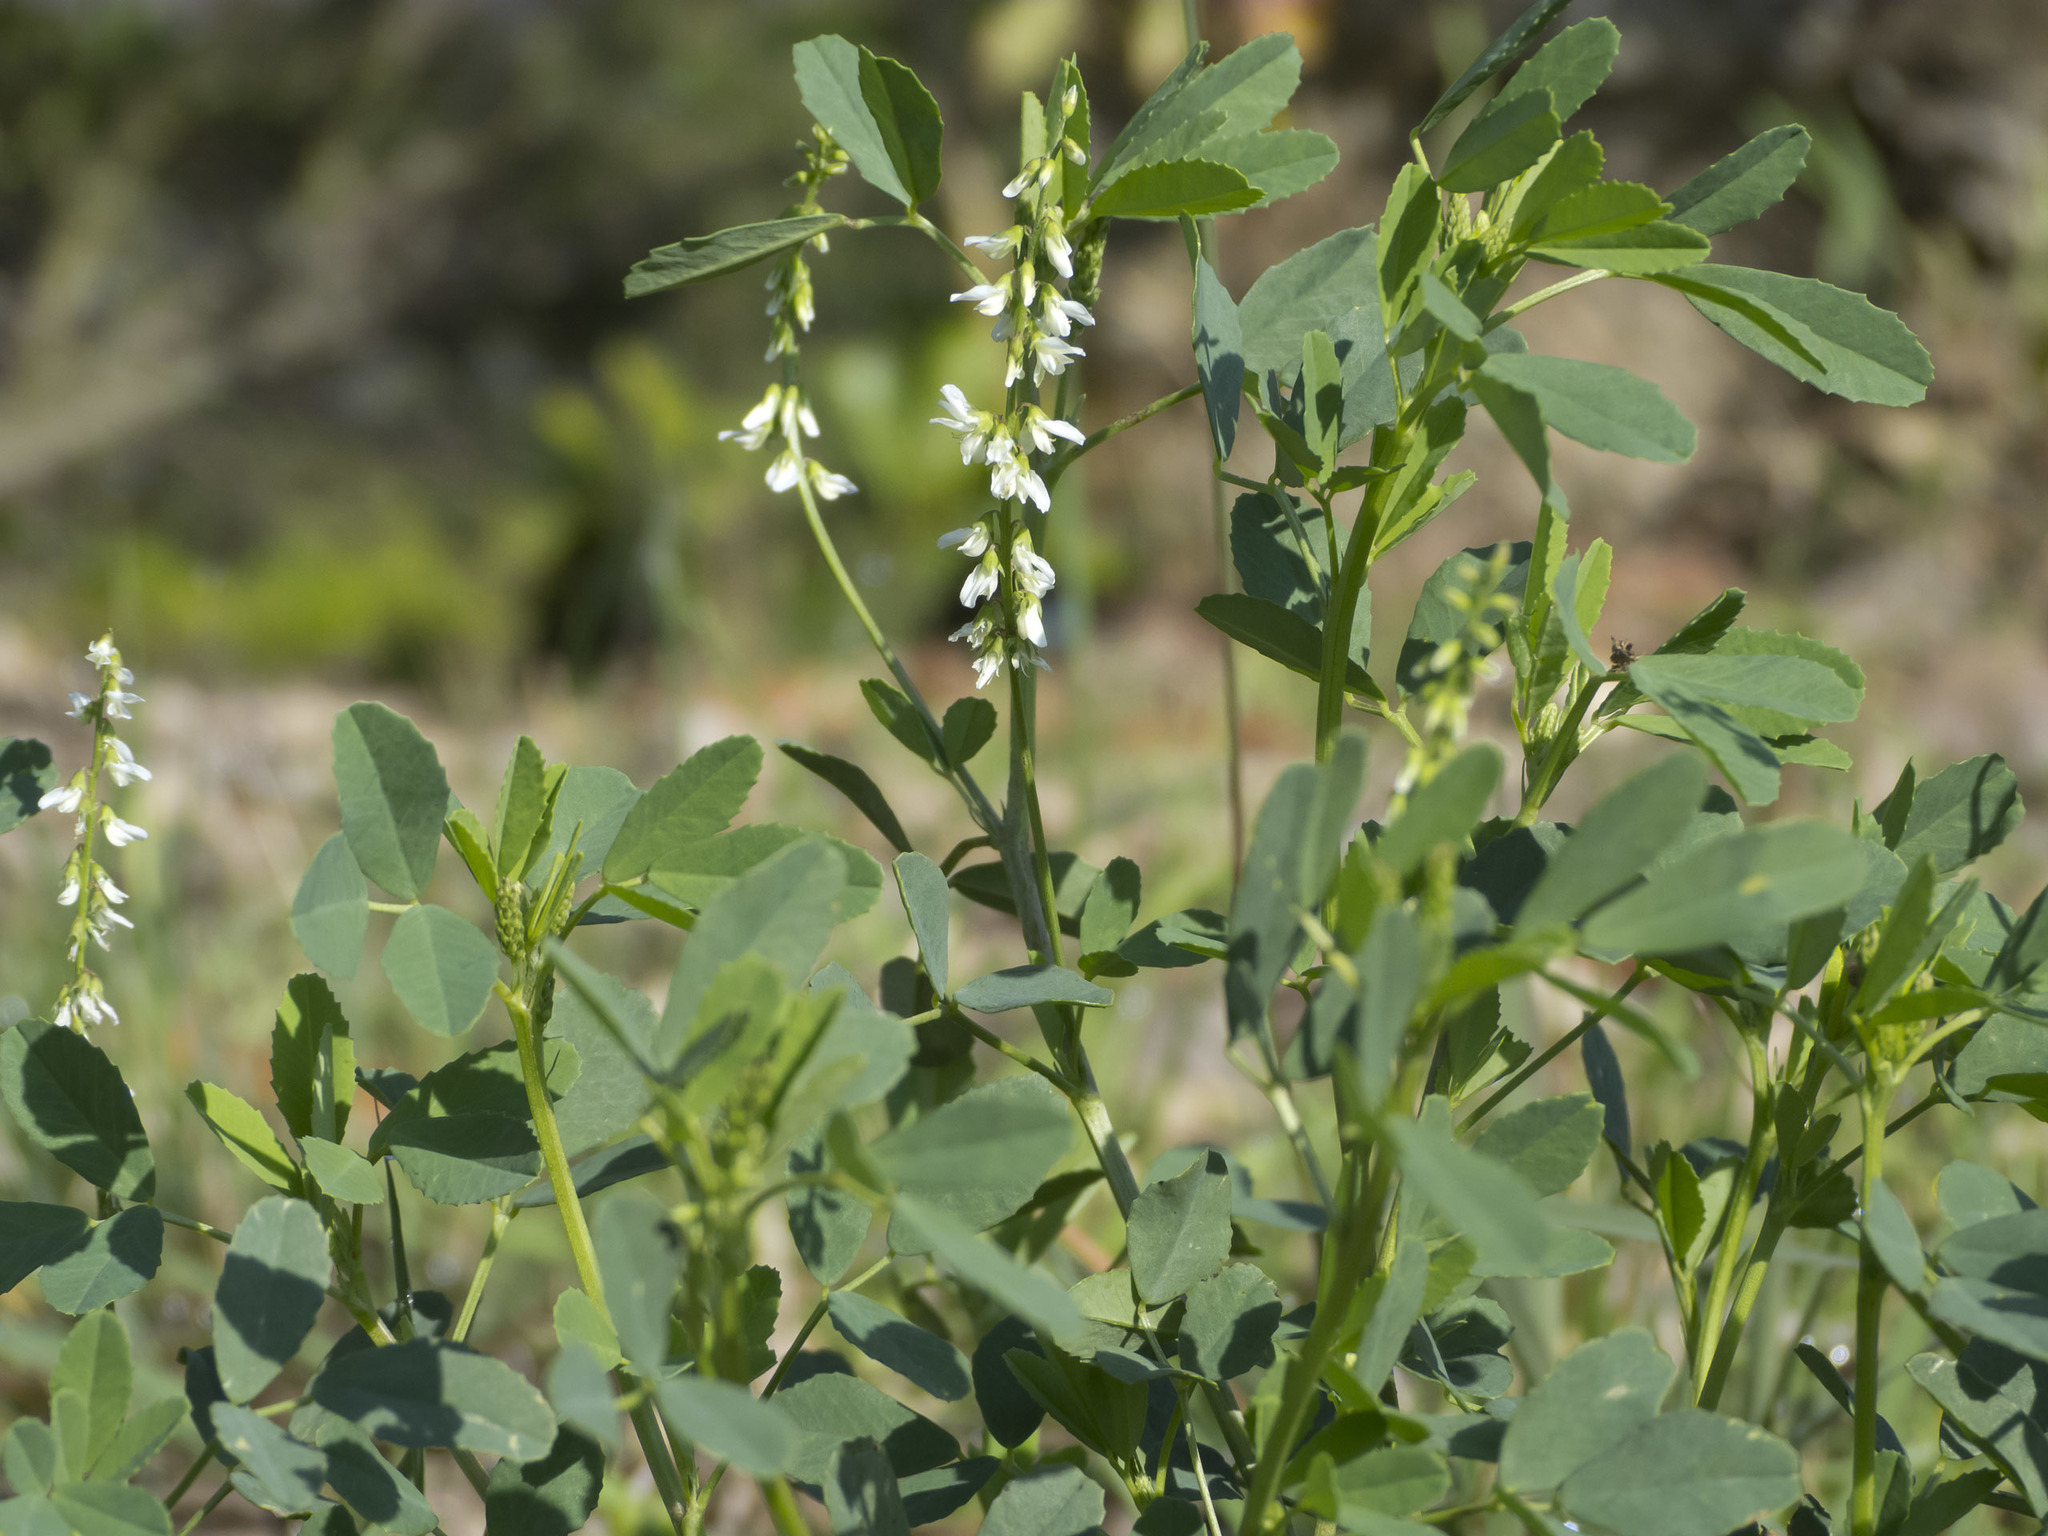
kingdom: Plantae
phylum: Tracheophyta
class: Magnoliopsida
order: Fabales
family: Fabaceae
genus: Melilotus
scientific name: Melilotus albus
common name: White melilot
